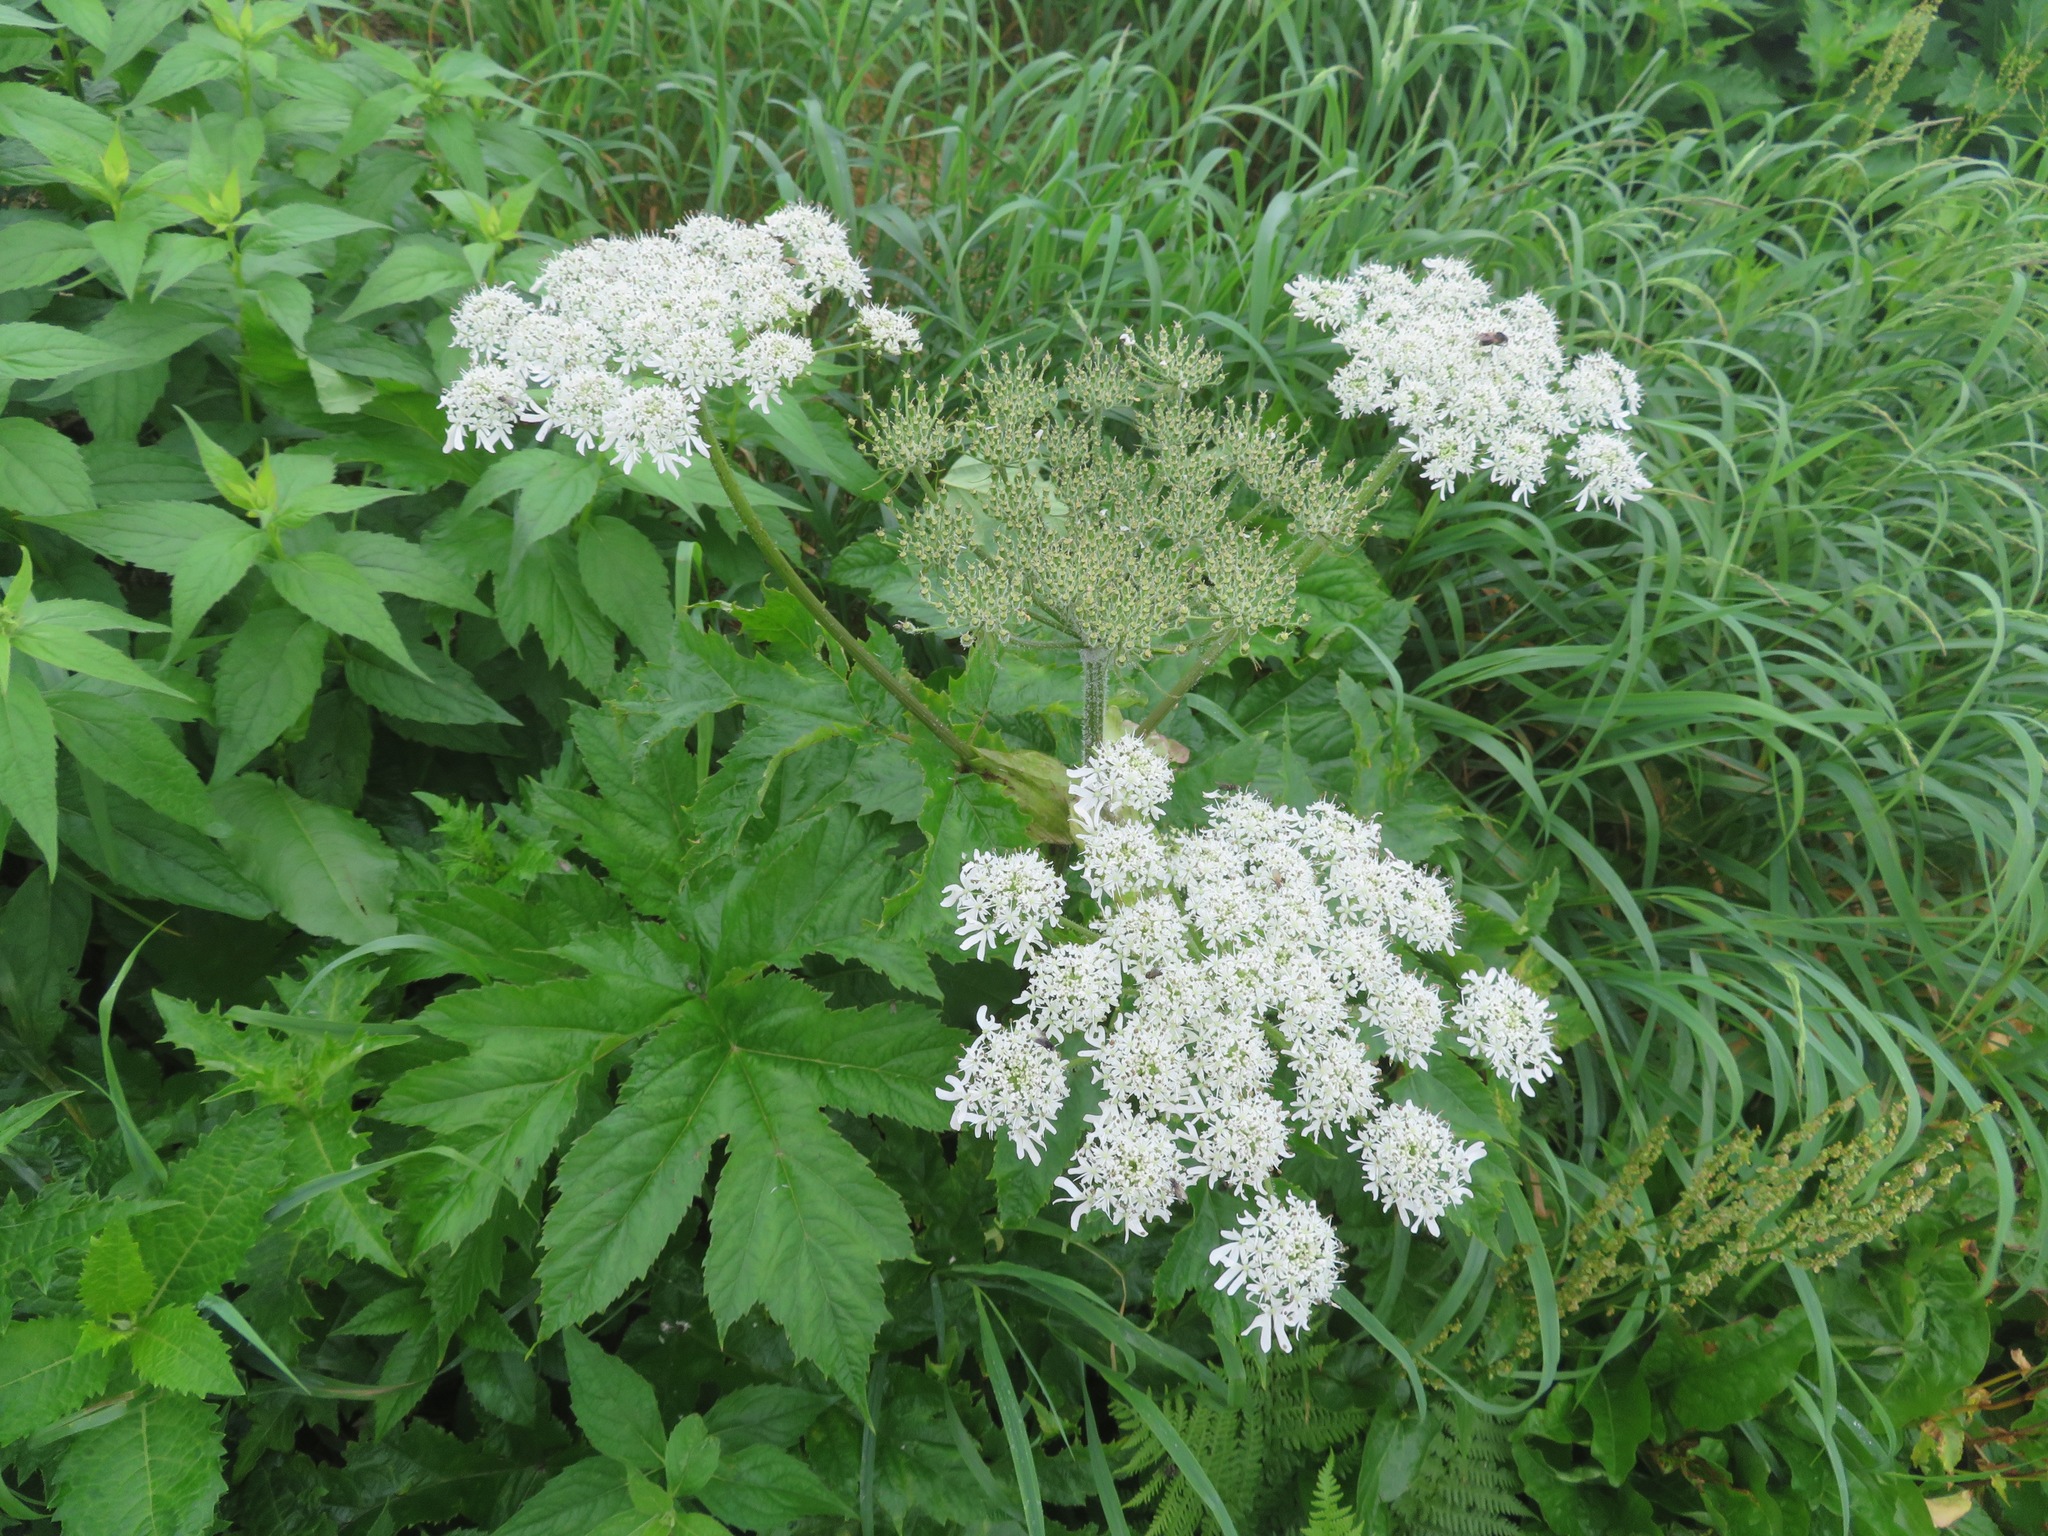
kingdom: Plantae
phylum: Tracheophyta
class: Magnoliopsida
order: Apiales
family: Apiaceae
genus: Heracleum
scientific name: Heracleum maximum
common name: American cow parsnip
